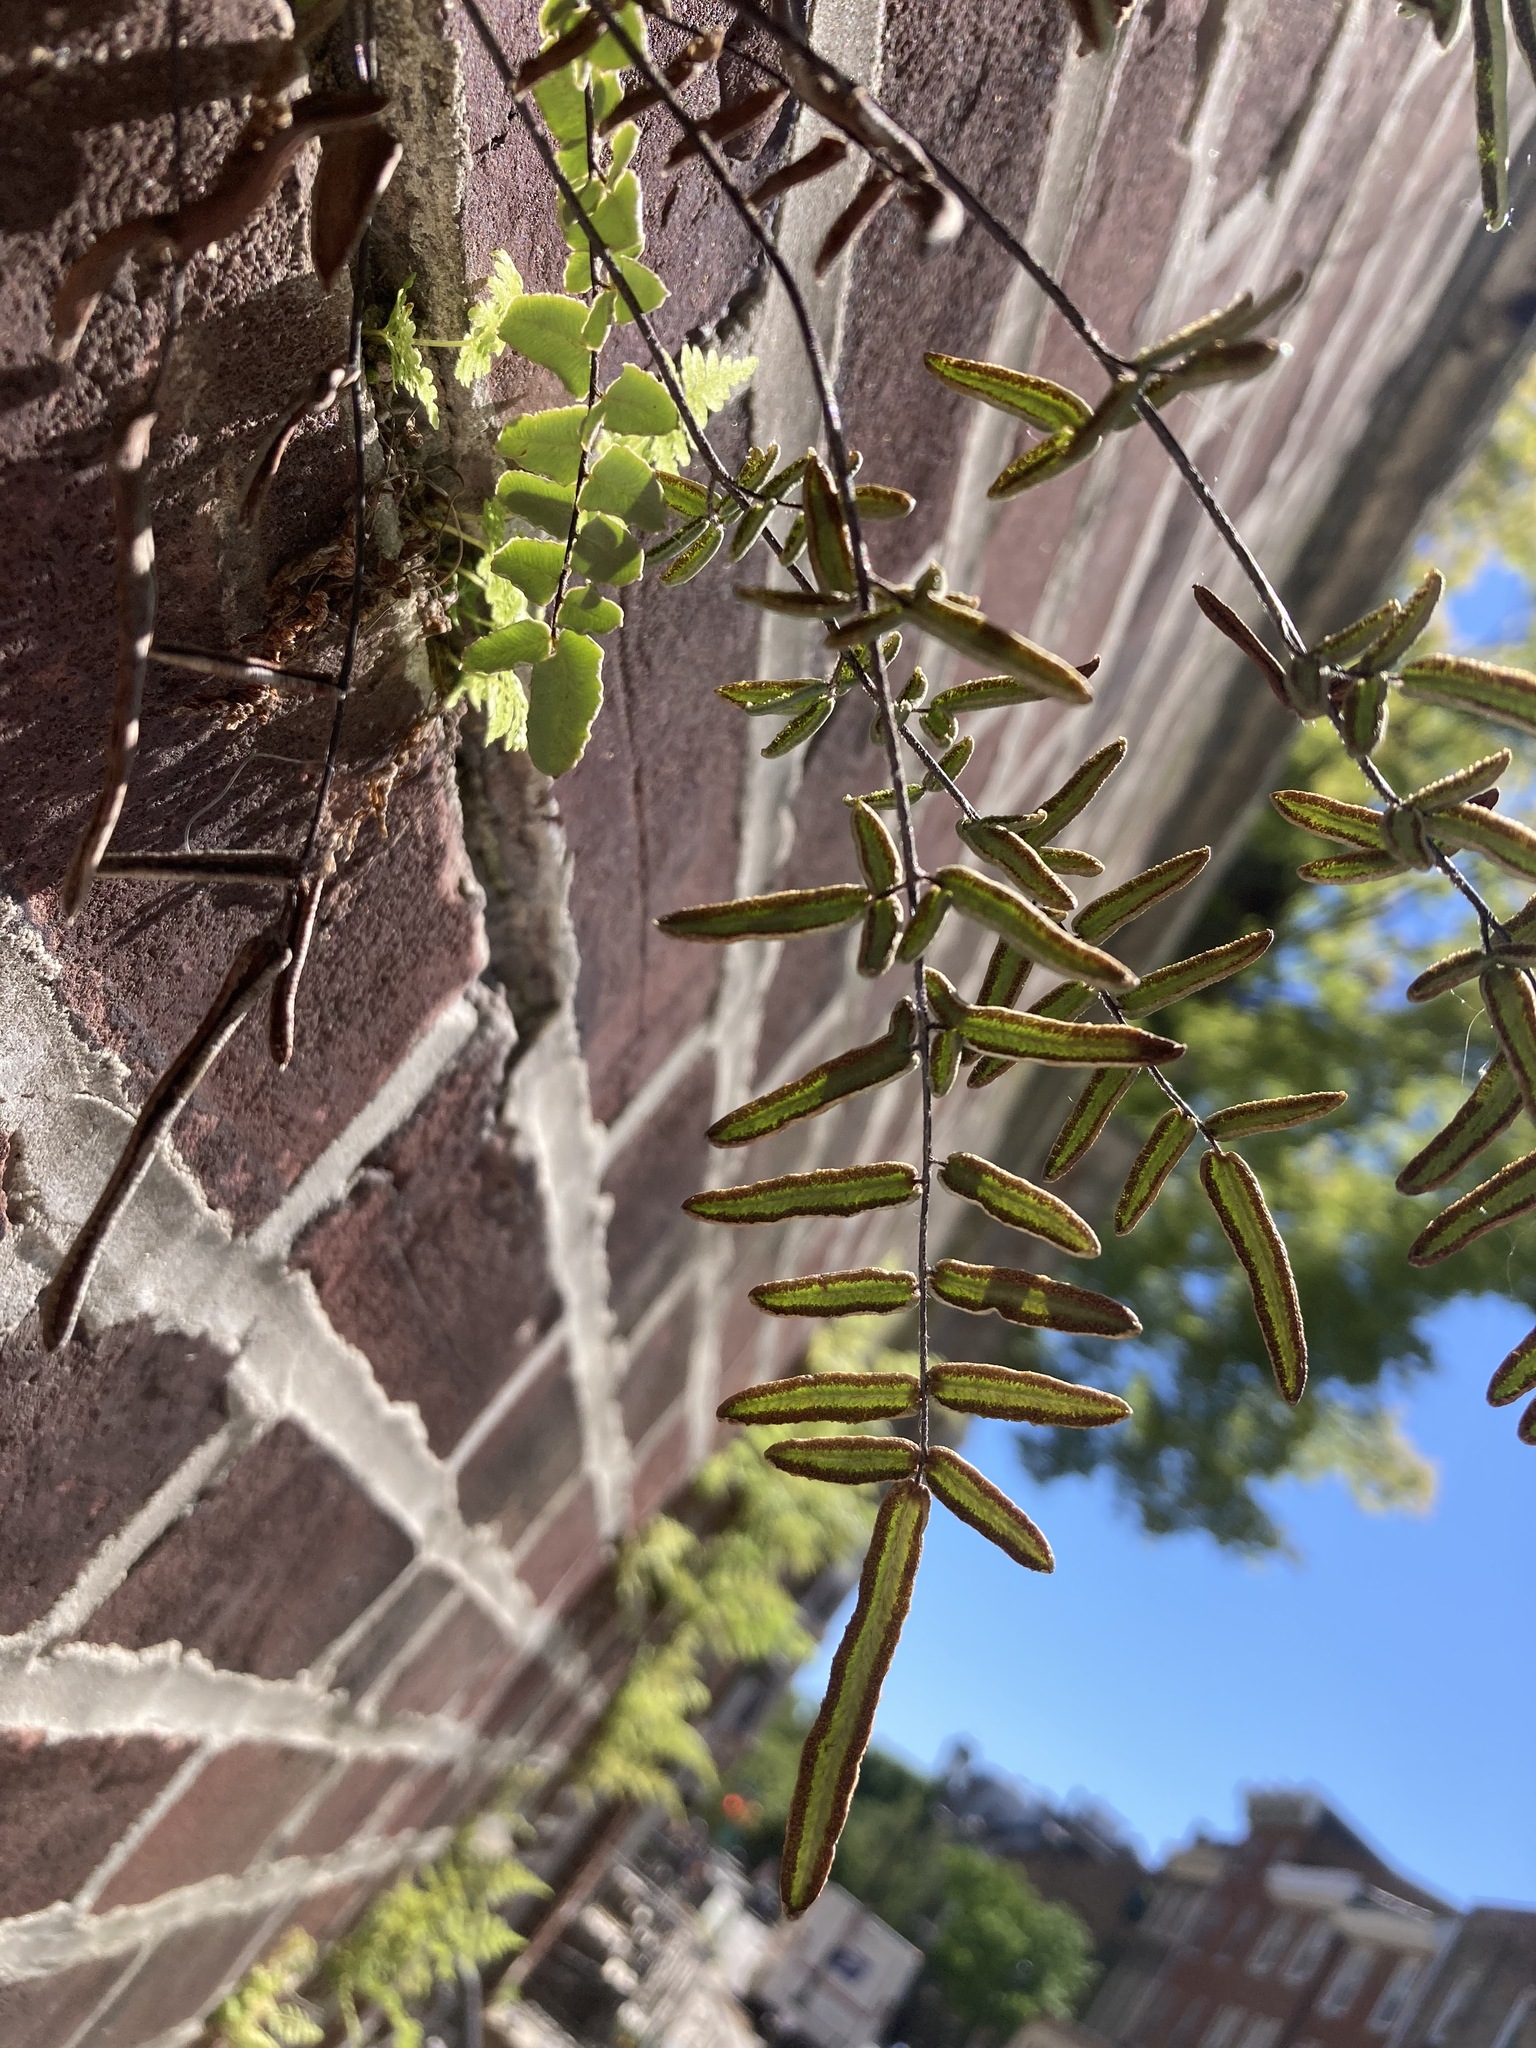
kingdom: Plantae
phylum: Tracheophyta
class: Polypodiopsida
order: Polypodiales
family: Pteridaceae
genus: Pellaea
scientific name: Pellaea atropurpurea
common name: Hairy cliffbrake
